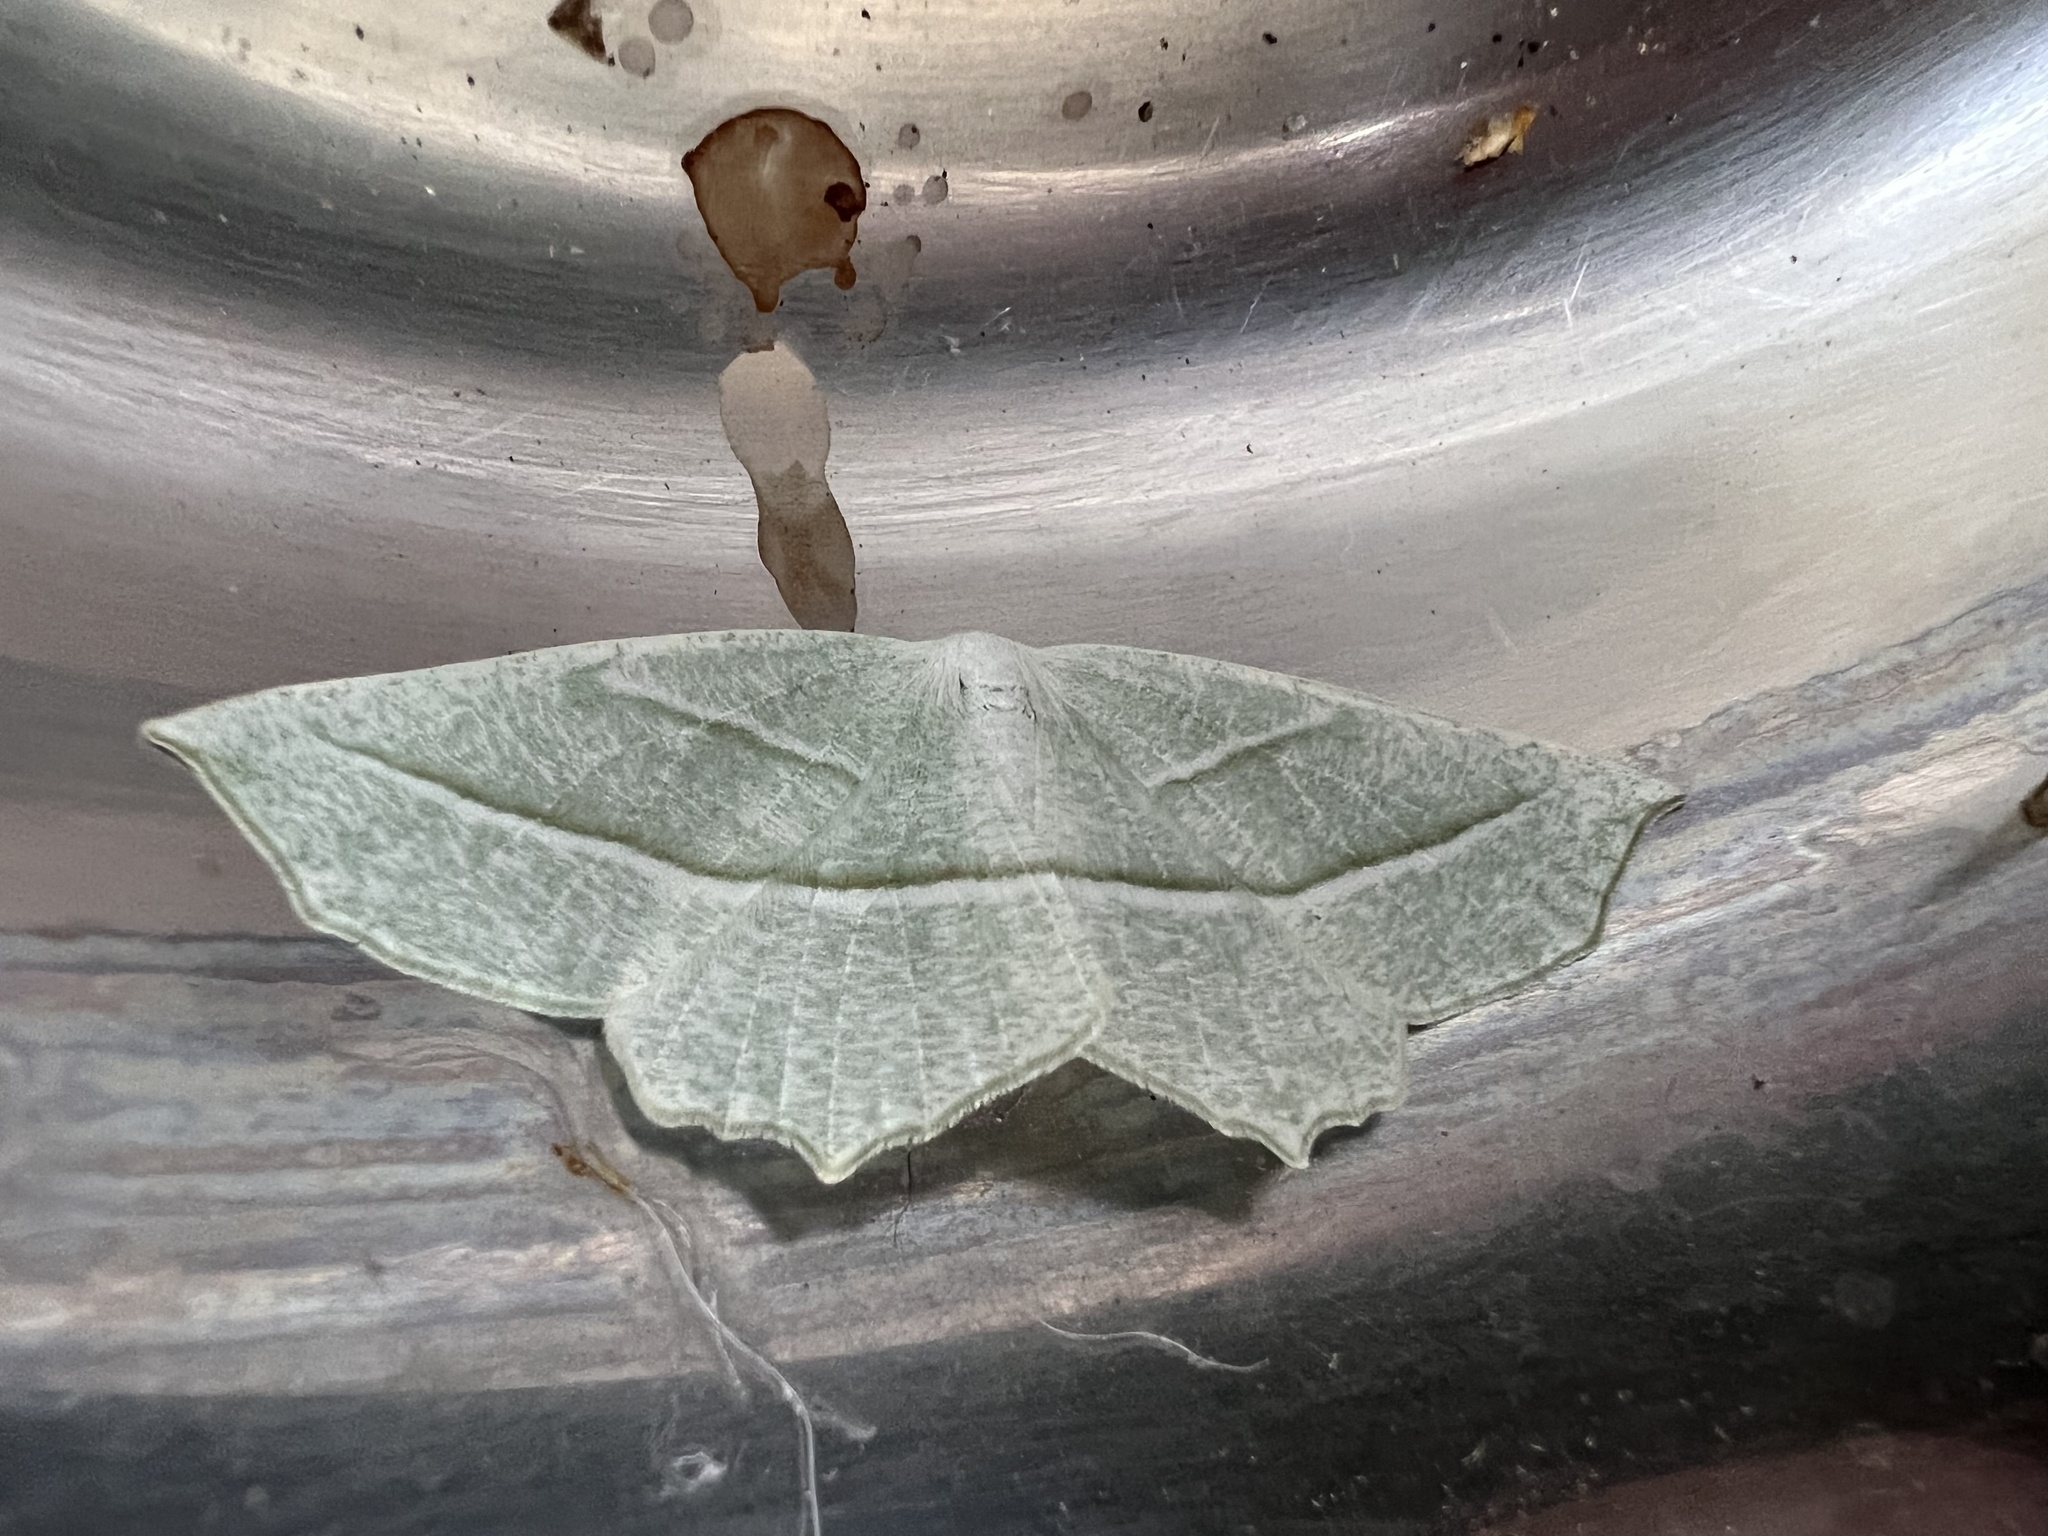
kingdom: Animalia
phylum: Arthropoda
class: Insecta
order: Lepidoptera
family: Geometridae
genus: Campaea
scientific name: Campaea perlata
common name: Fringed looper
